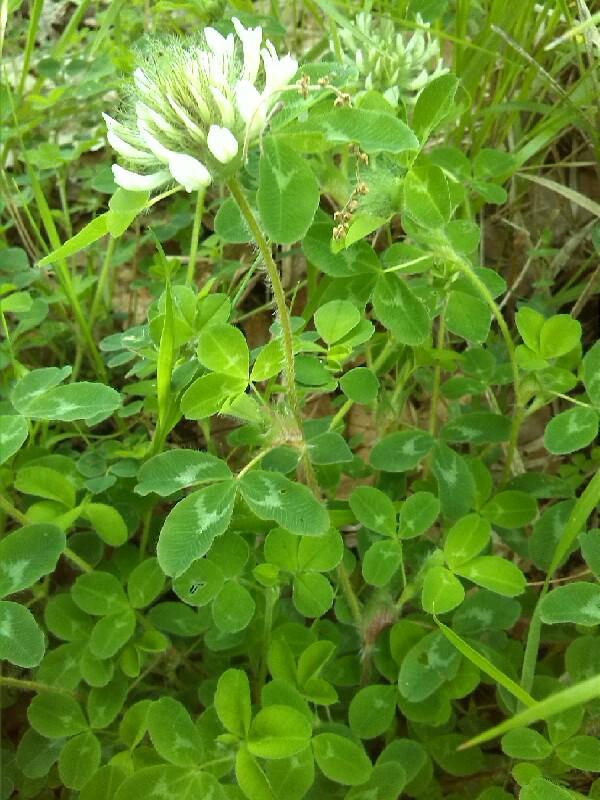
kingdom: Plantae
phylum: Tracheophyta
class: Magnoliopsida
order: Fabales
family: Fabaceae
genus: Trifolium
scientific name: Trifolium repens
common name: White clover
